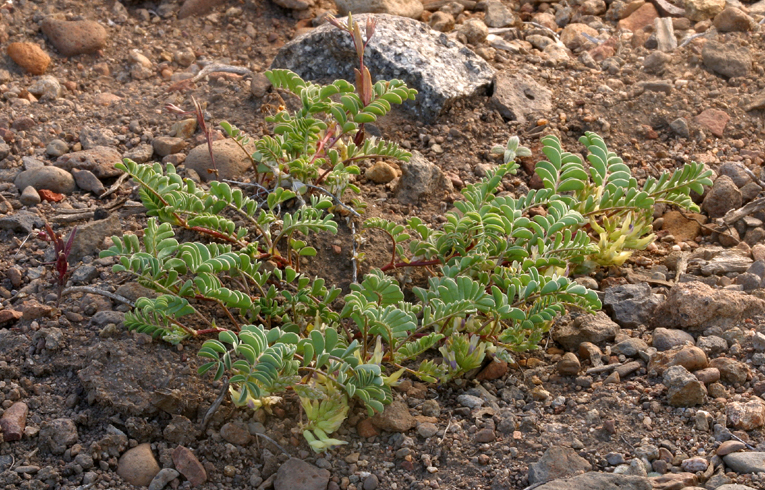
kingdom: Plantae
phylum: Tracheophyta
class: Magnoliopsida
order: Fabales
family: Fabaceae
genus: Astragalus
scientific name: Astragalus lentiginosus
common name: Freckled milkvetch
